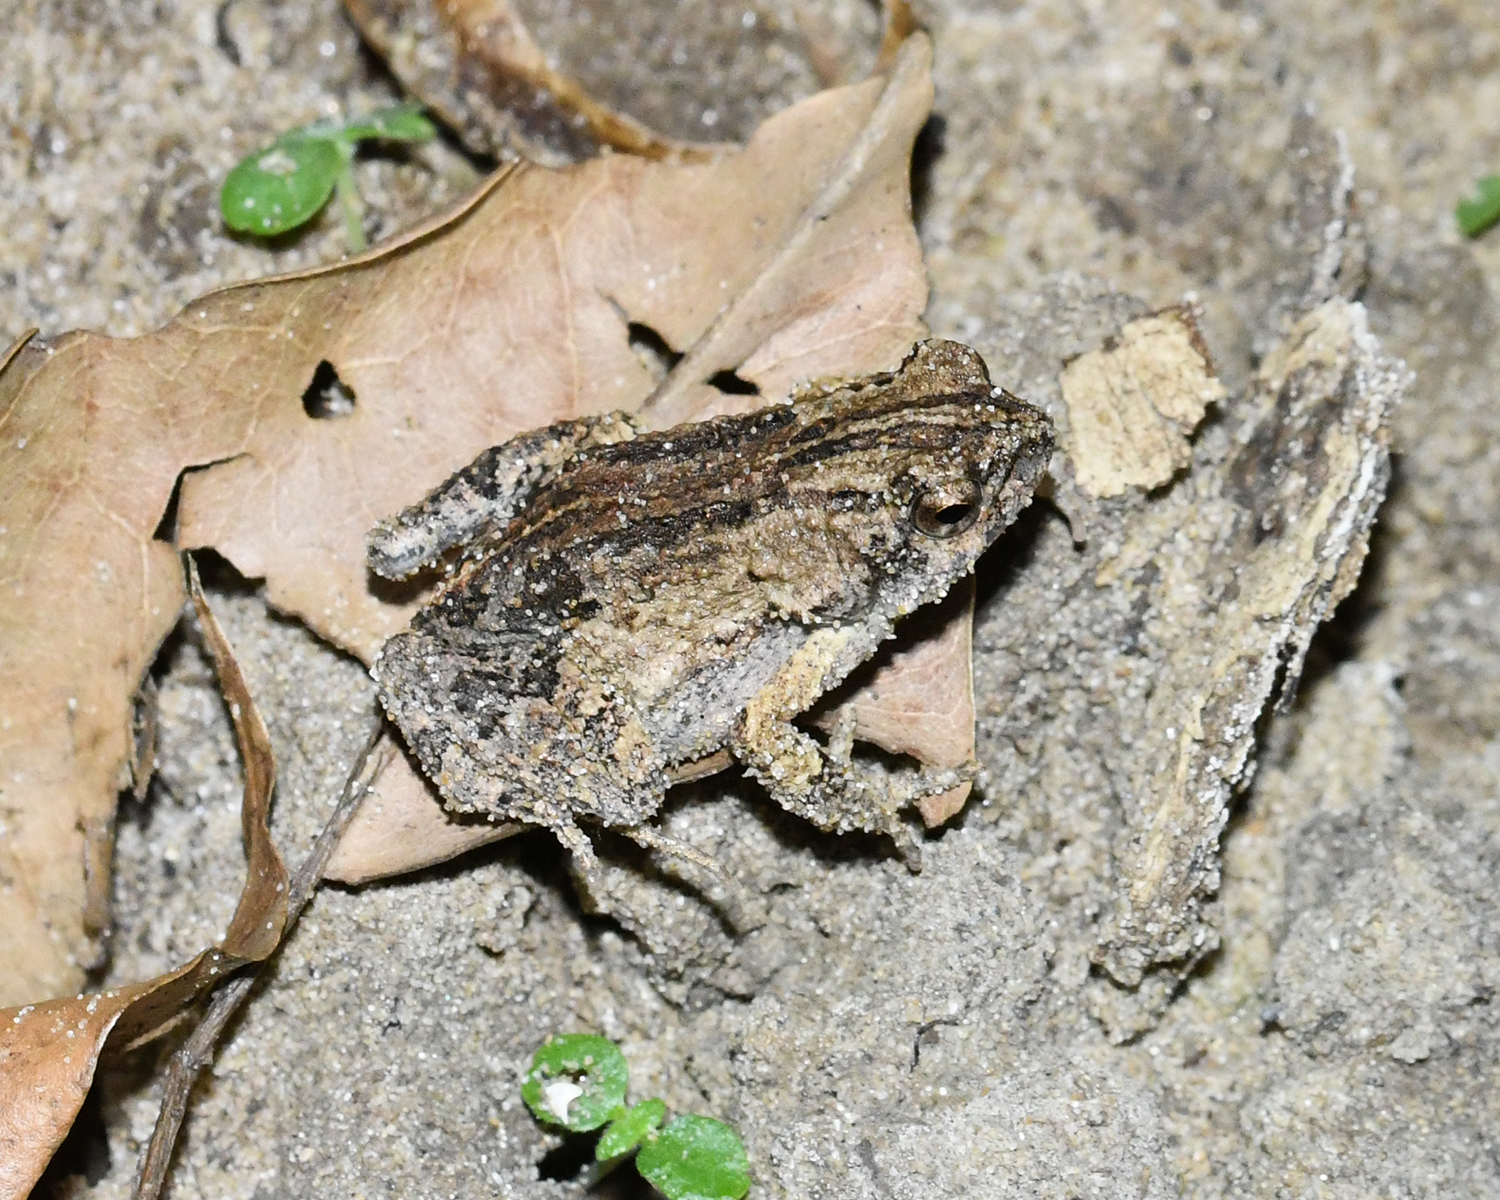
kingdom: Animalia
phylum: Chordata
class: Amphibia
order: Anura
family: Leptodactylidae
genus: Engystomops
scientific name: Engystomops pustulosus
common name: Tungara frog
